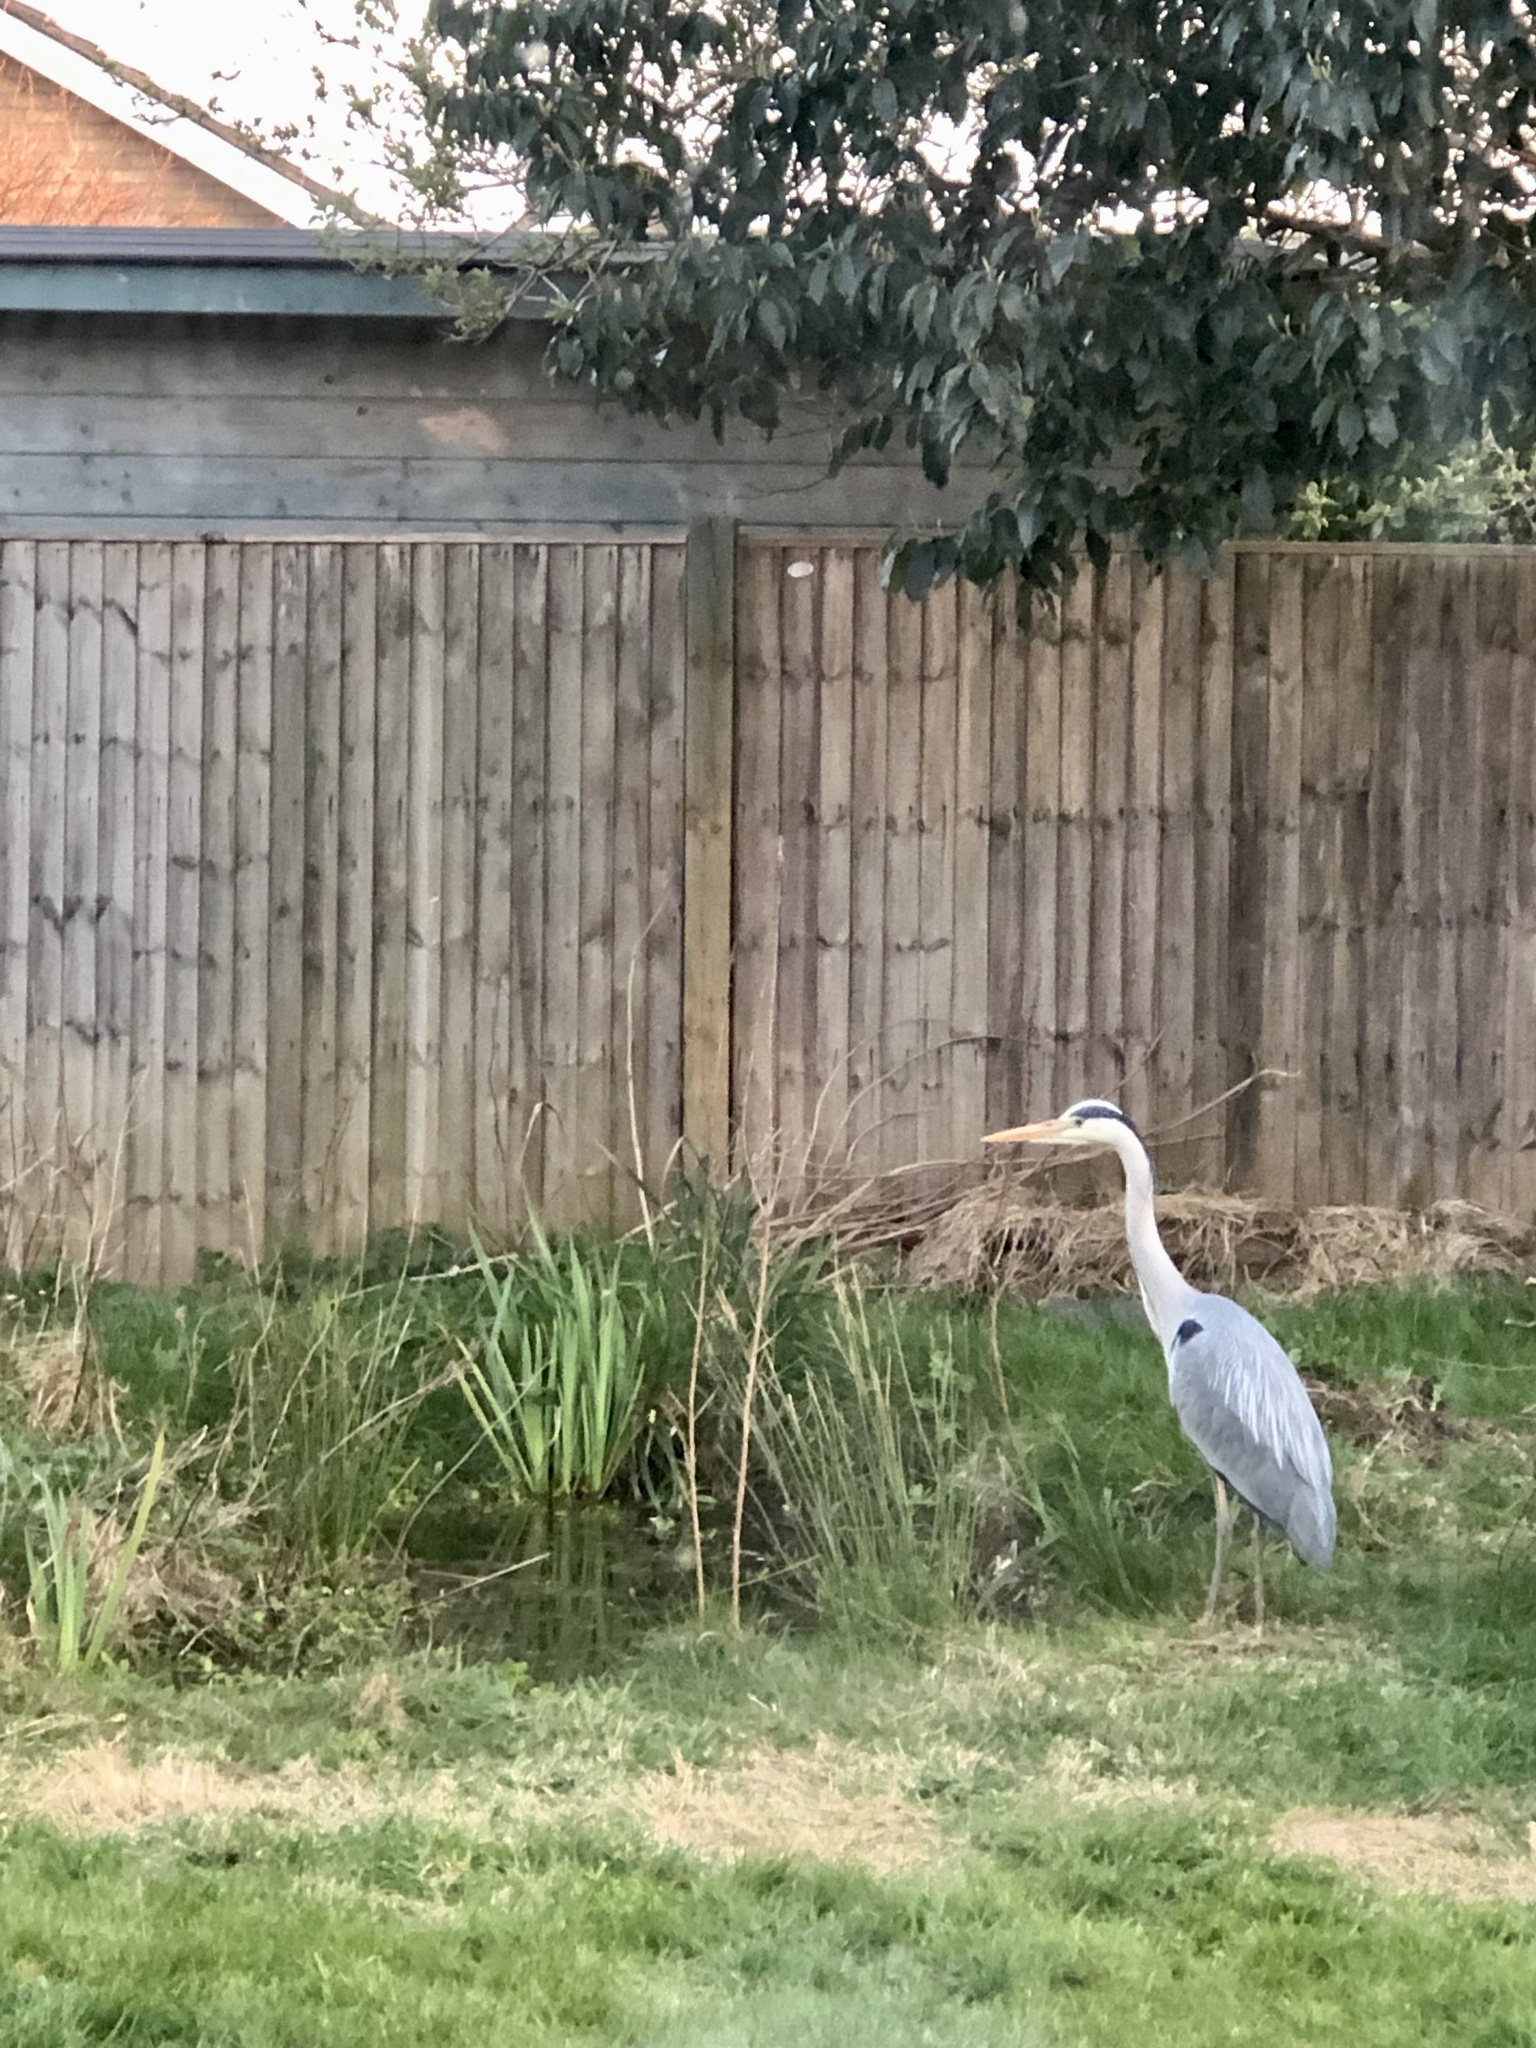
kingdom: Animalia
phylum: Chordata
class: Aves
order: Pelecaniformes
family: Ardeidae
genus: Ardea
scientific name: Ardea cinerea
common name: Grey heron
